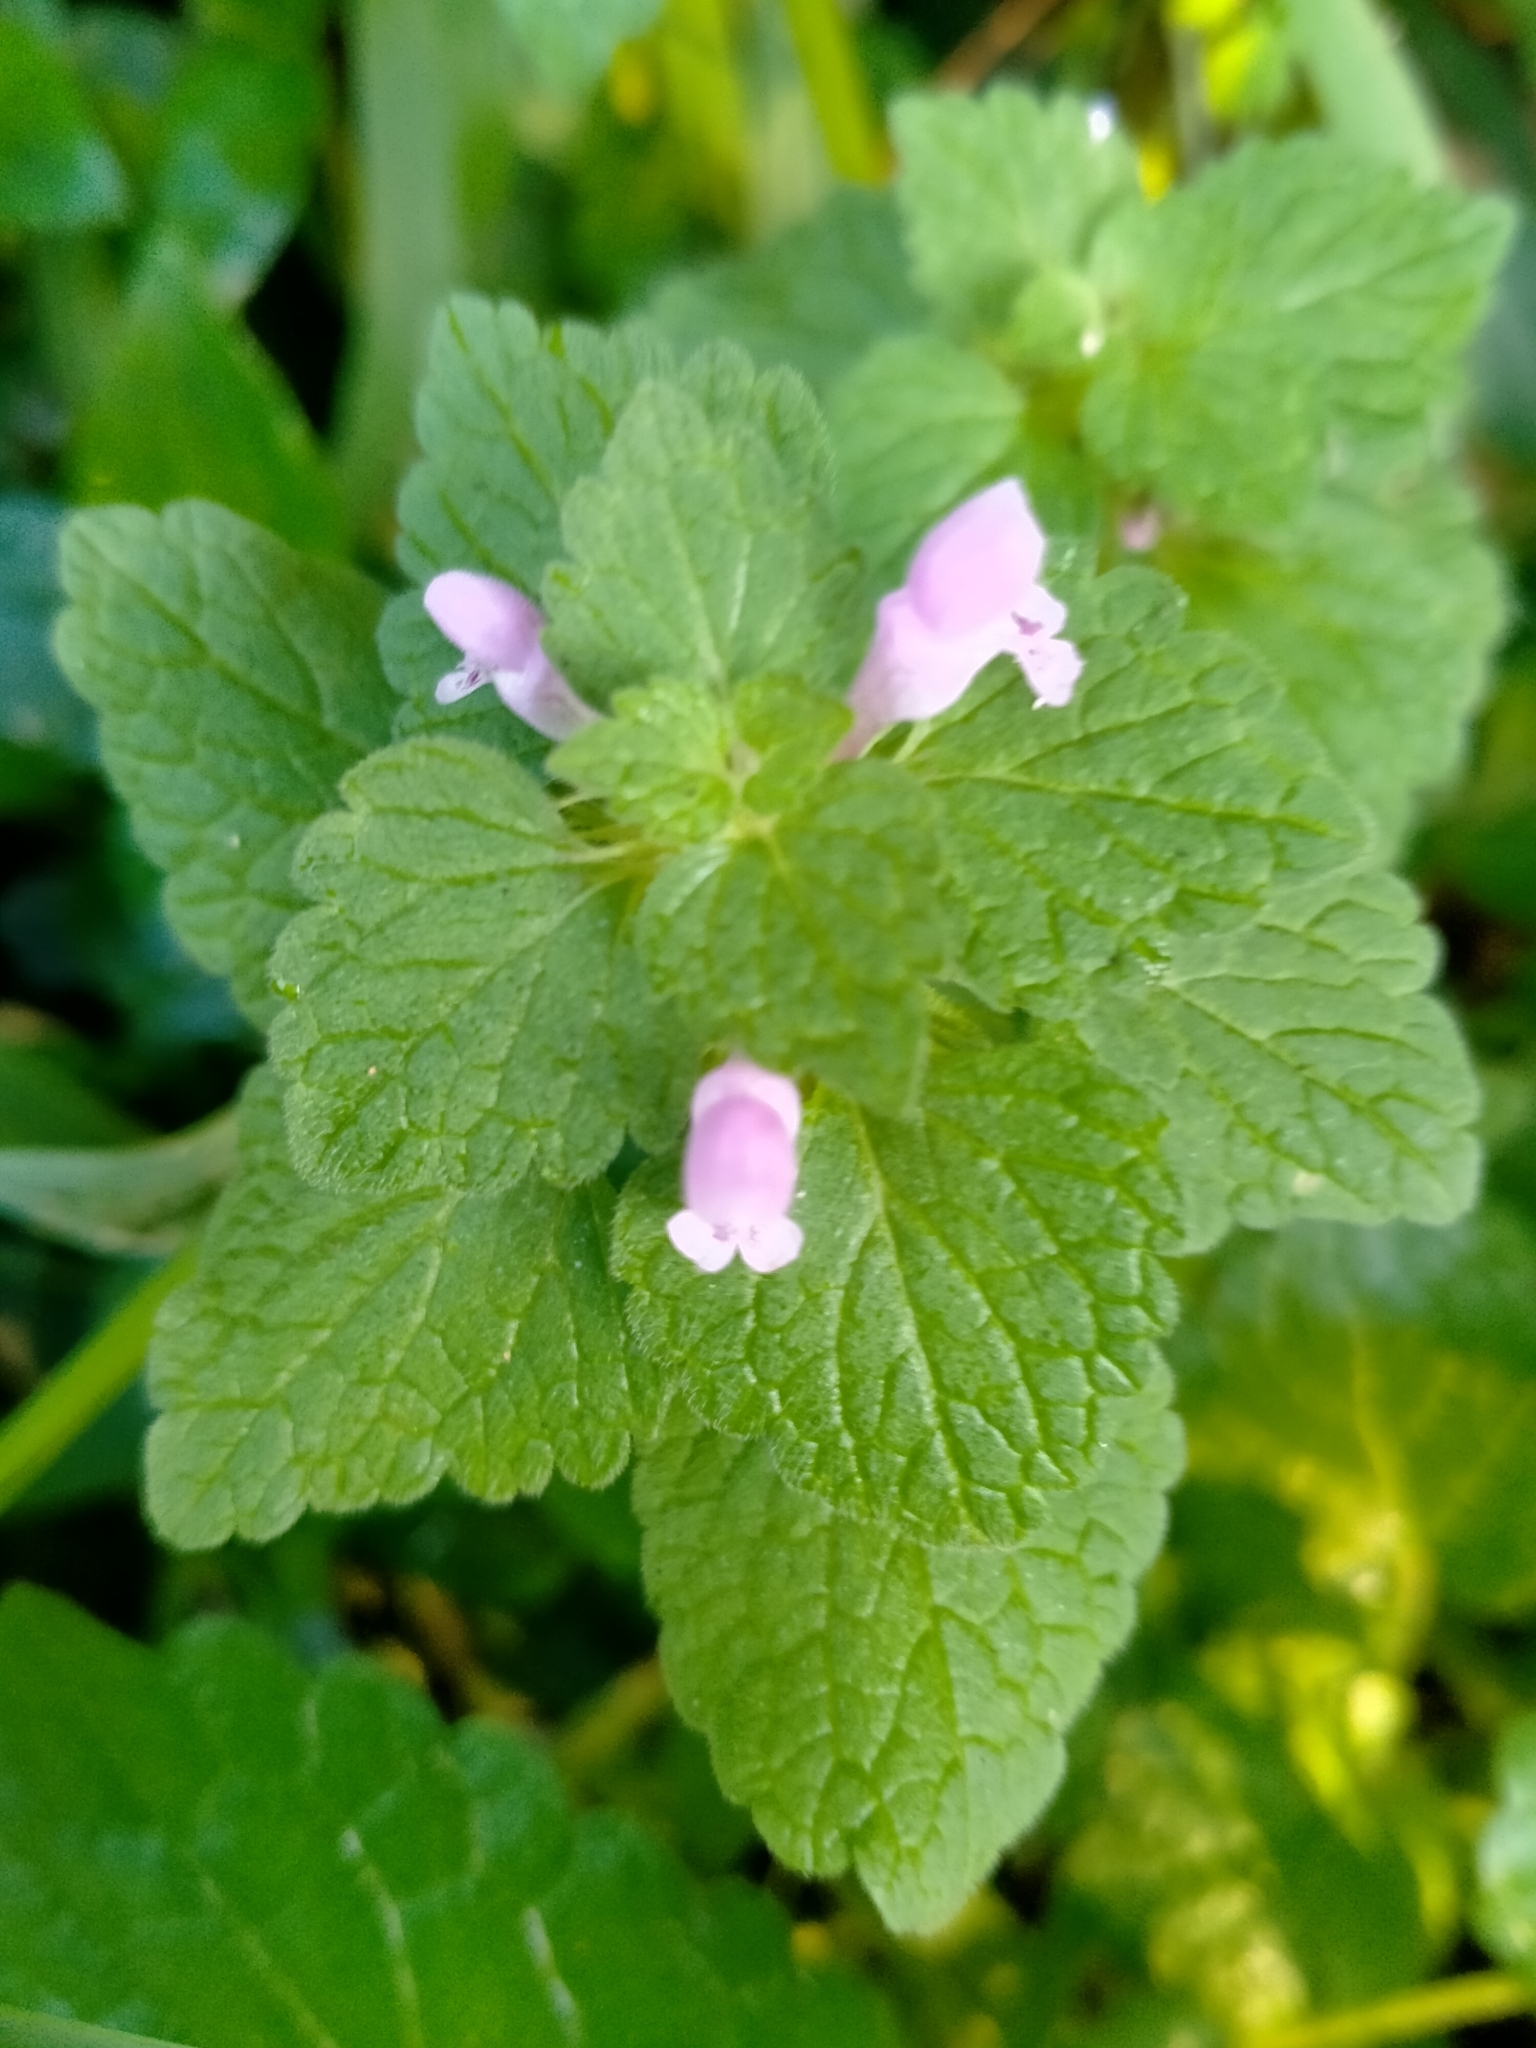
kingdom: Plantae
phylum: Tracheophyta
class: Magnoliopsida
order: Lamiales
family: Lamiaceae
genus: Lamium
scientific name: Lamium purpureum
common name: Red dead-nettle
